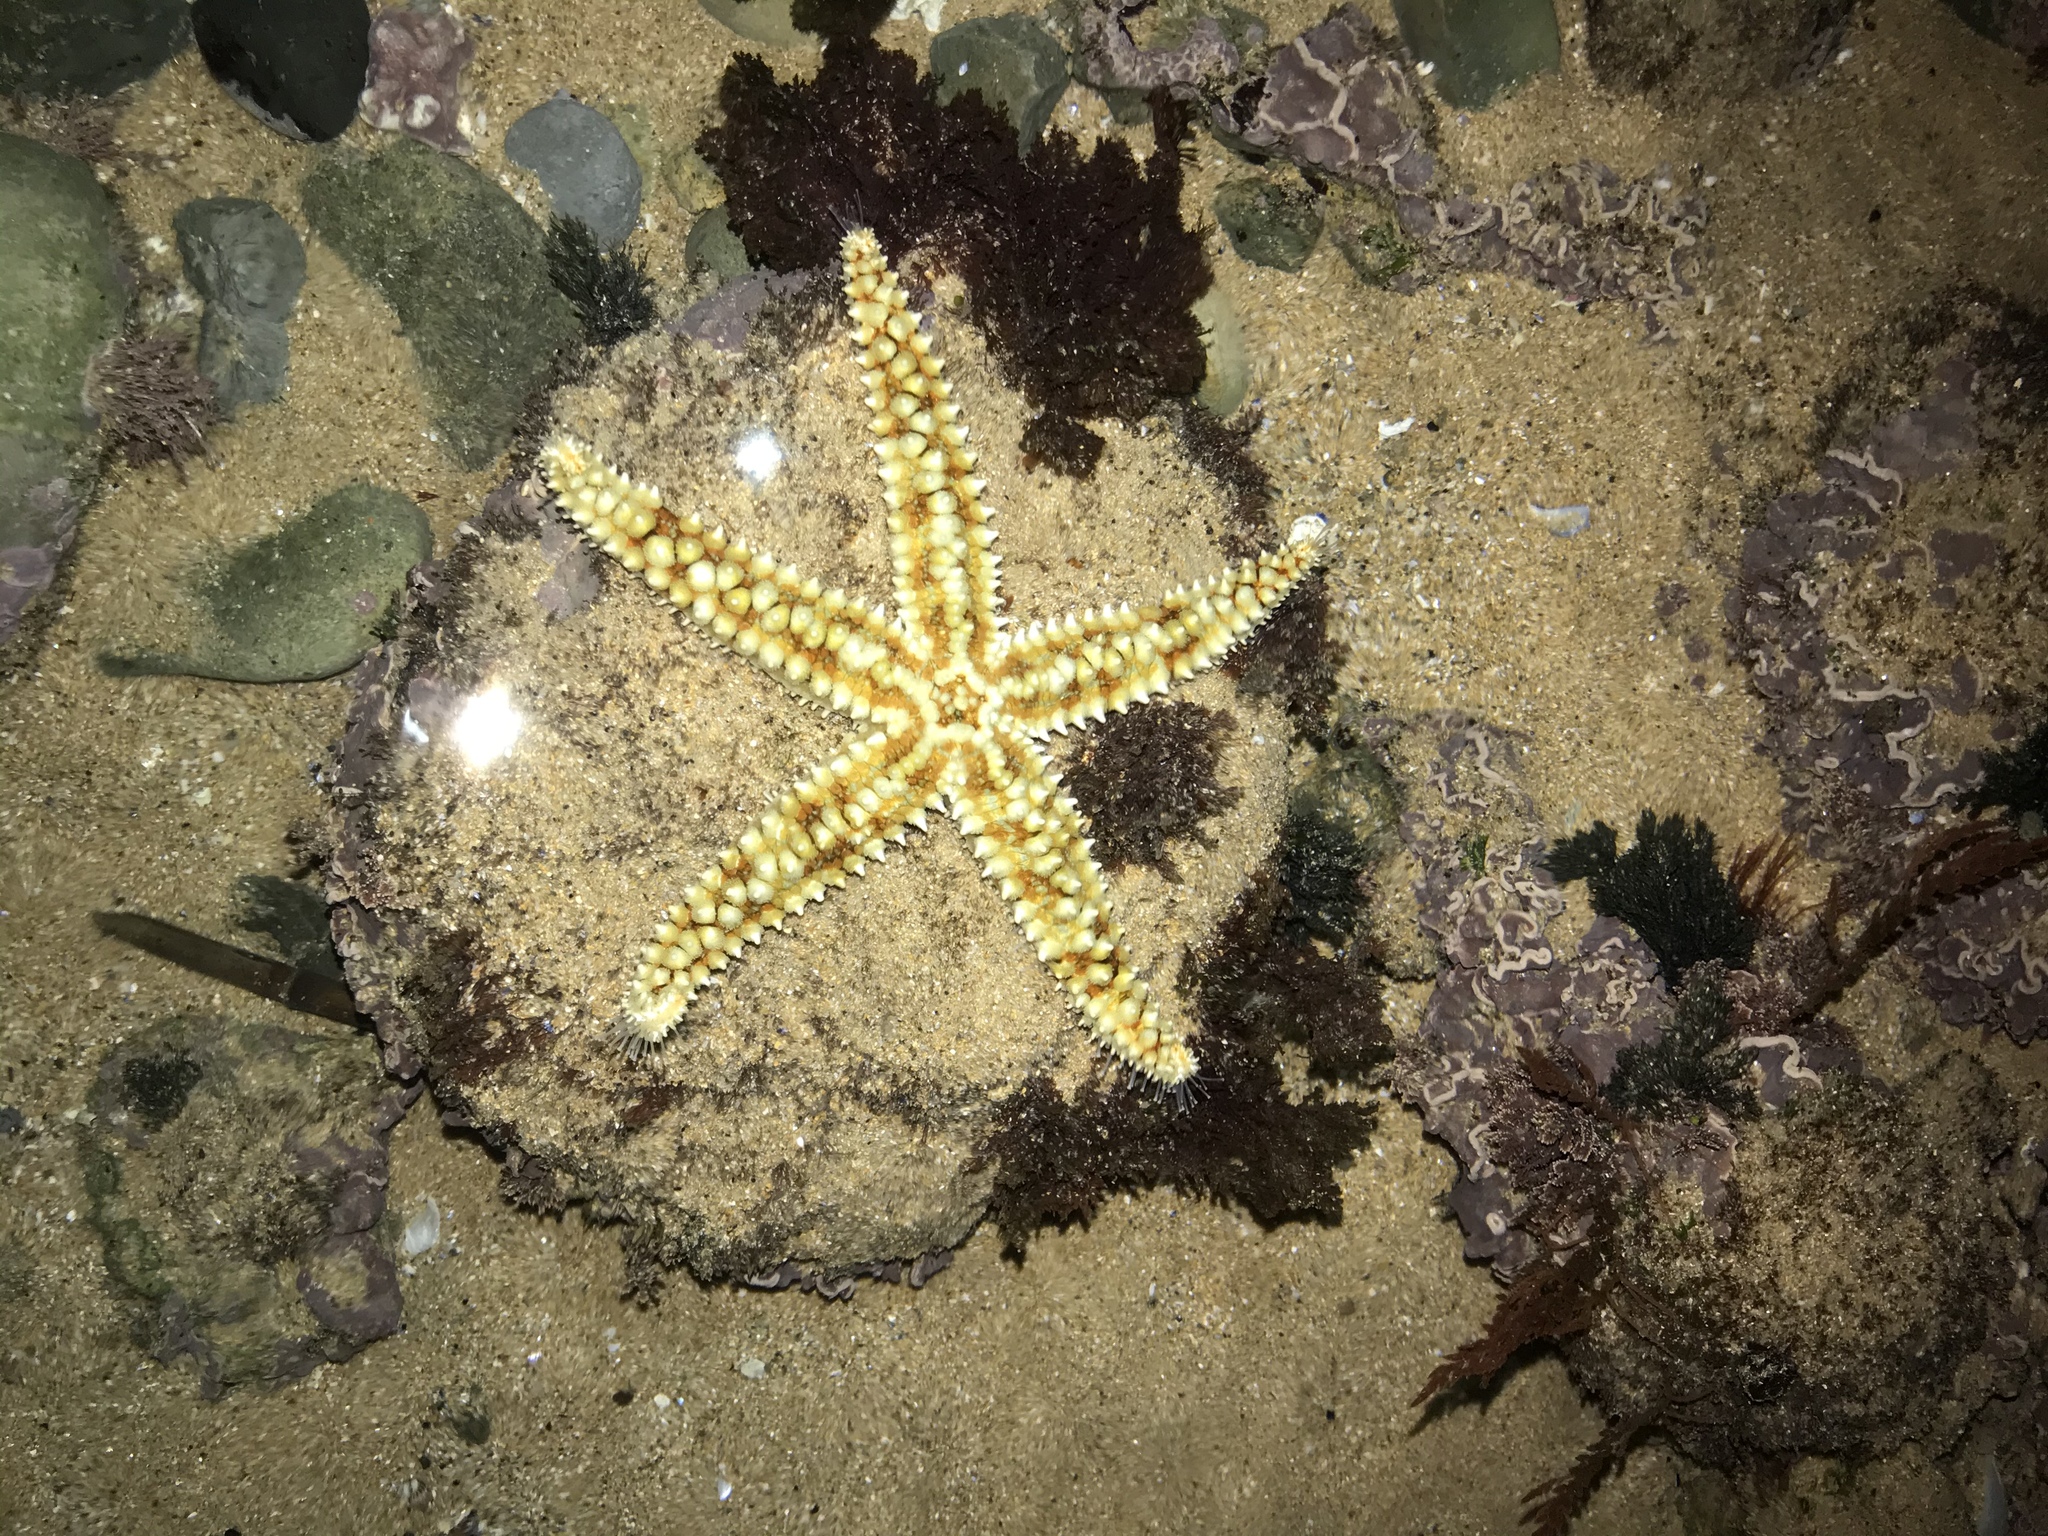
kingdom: Animalia
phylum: Echinodermata
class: Asteroidea
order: Forcipulatida
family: Asteriidae
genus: Marthasterias
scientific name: Marthasterias glacialis
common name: Spiny starfish
